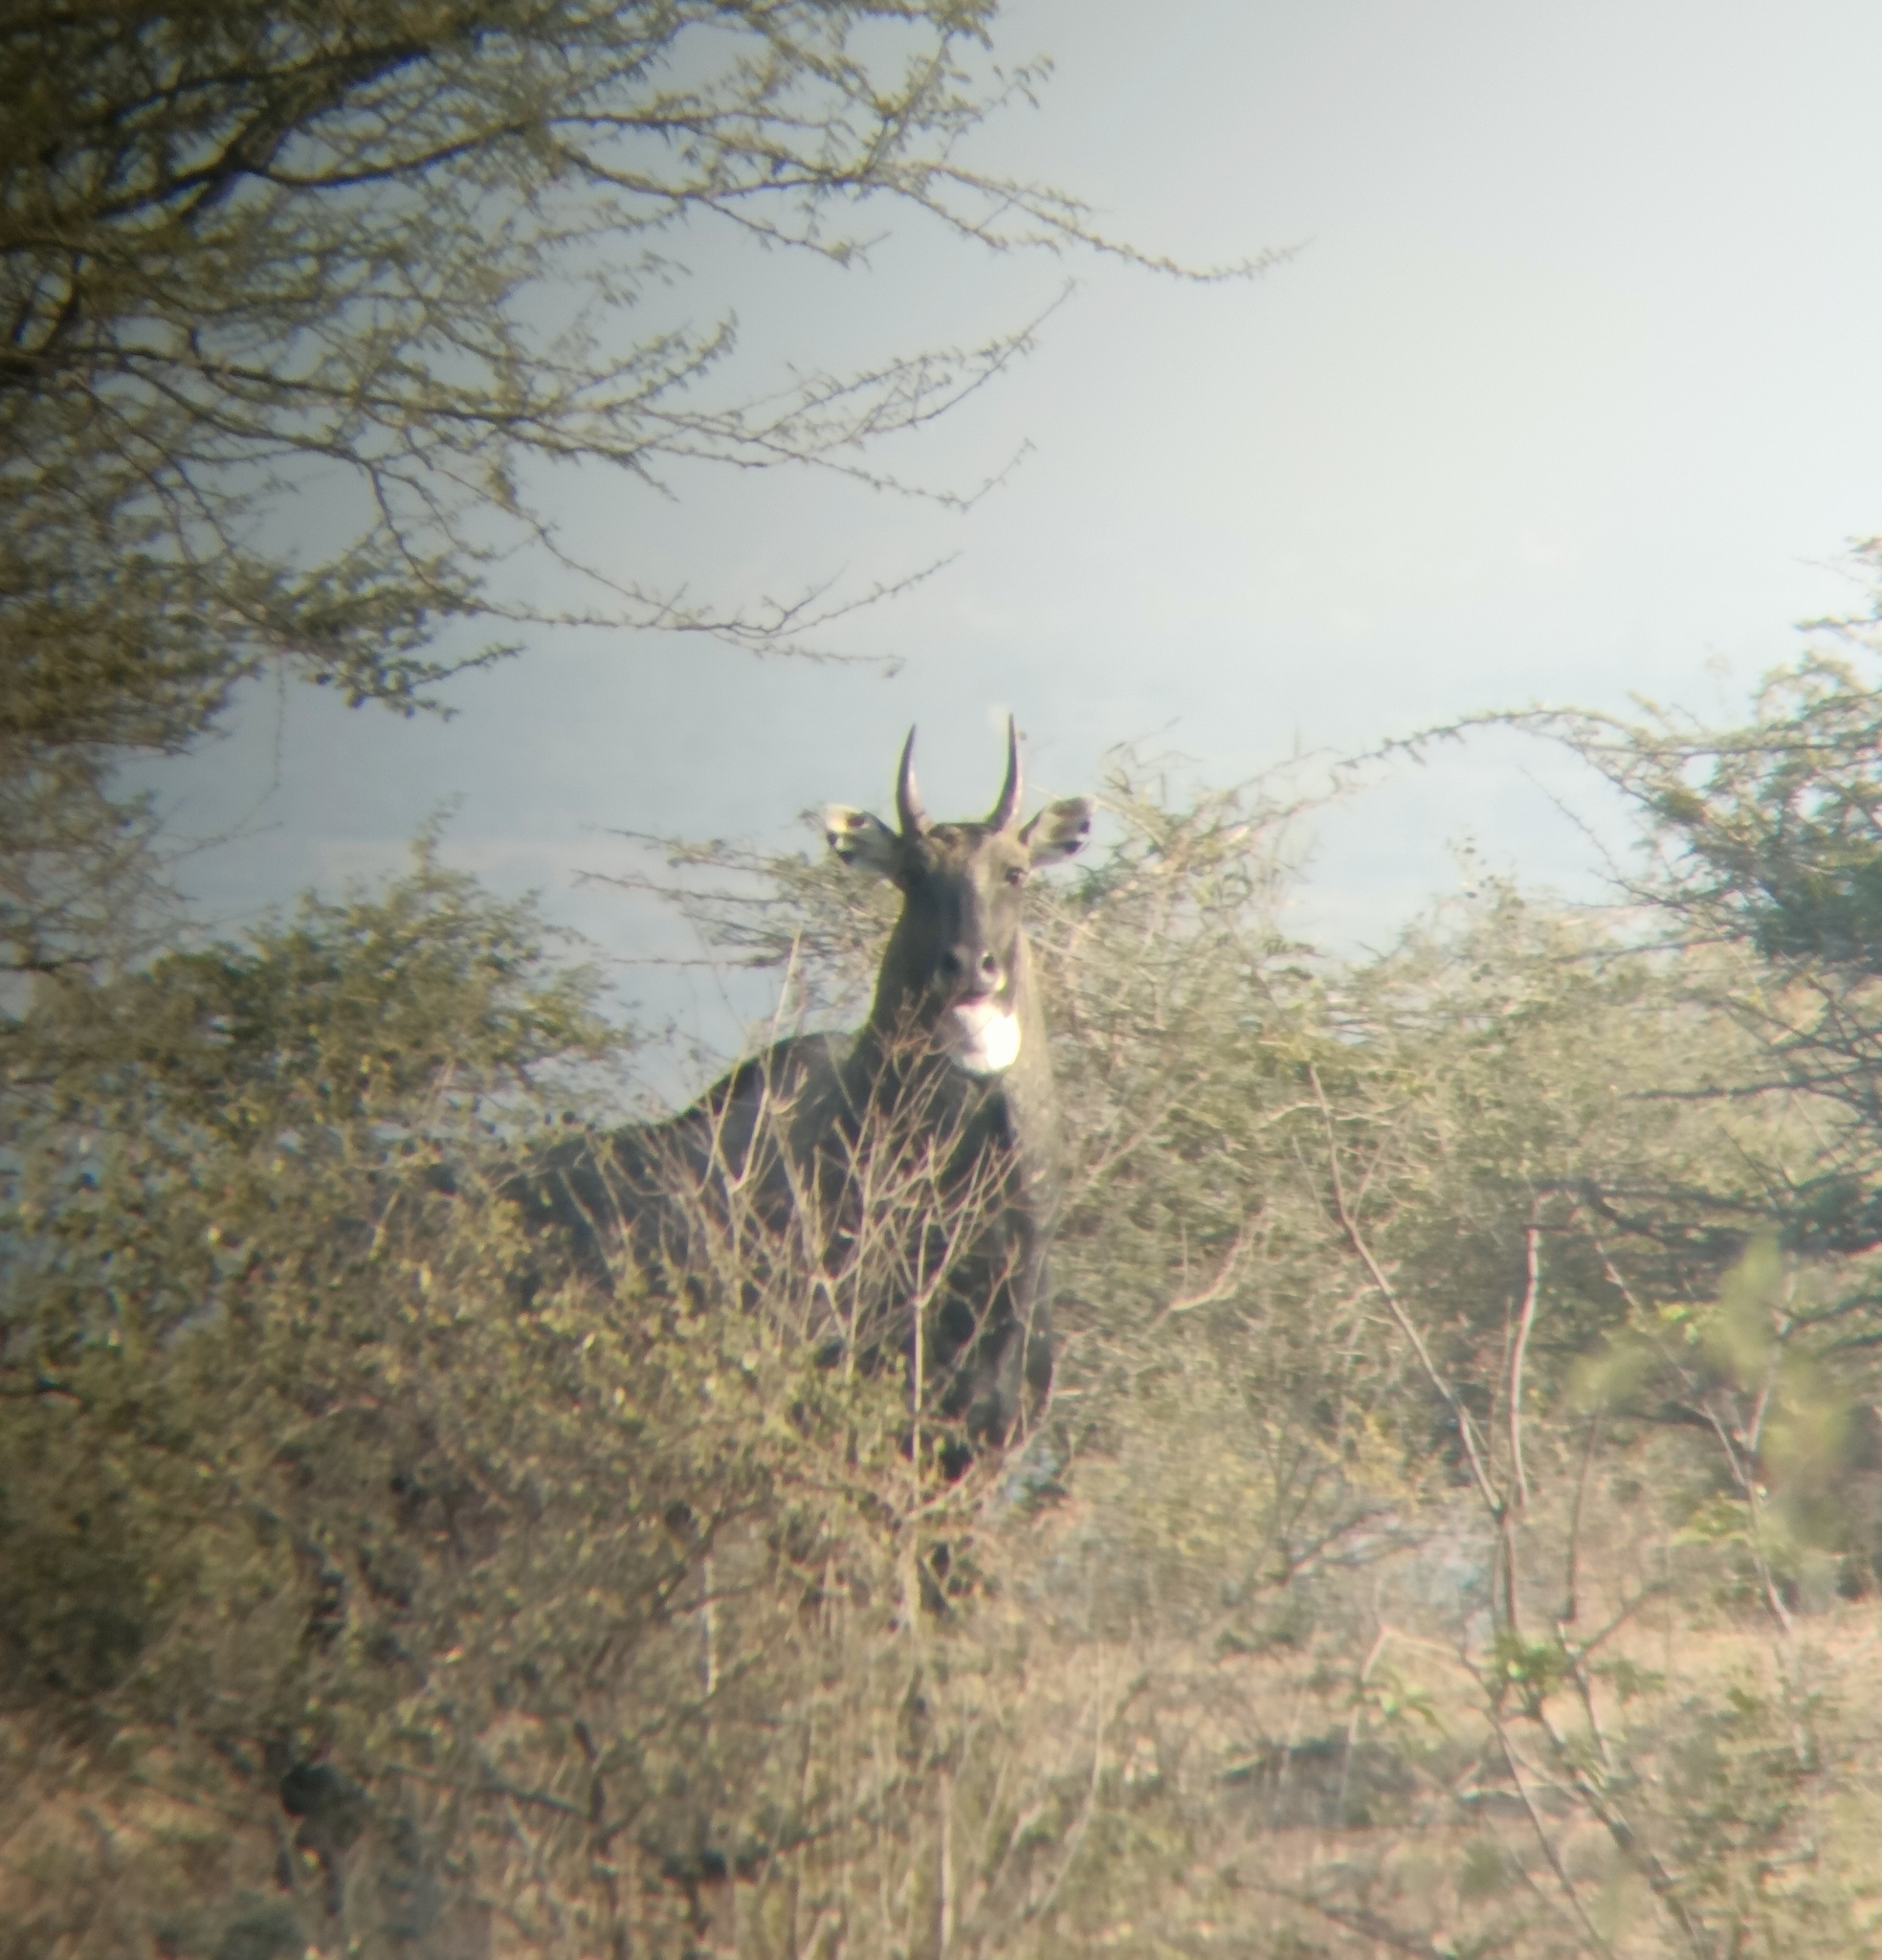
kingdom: Animalia
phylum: Chordata
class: Mammalia
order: Artiodactyla
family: Bovidae
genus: Boselaphus
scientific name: Boselaphus tragocamelus
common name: Nilgai
